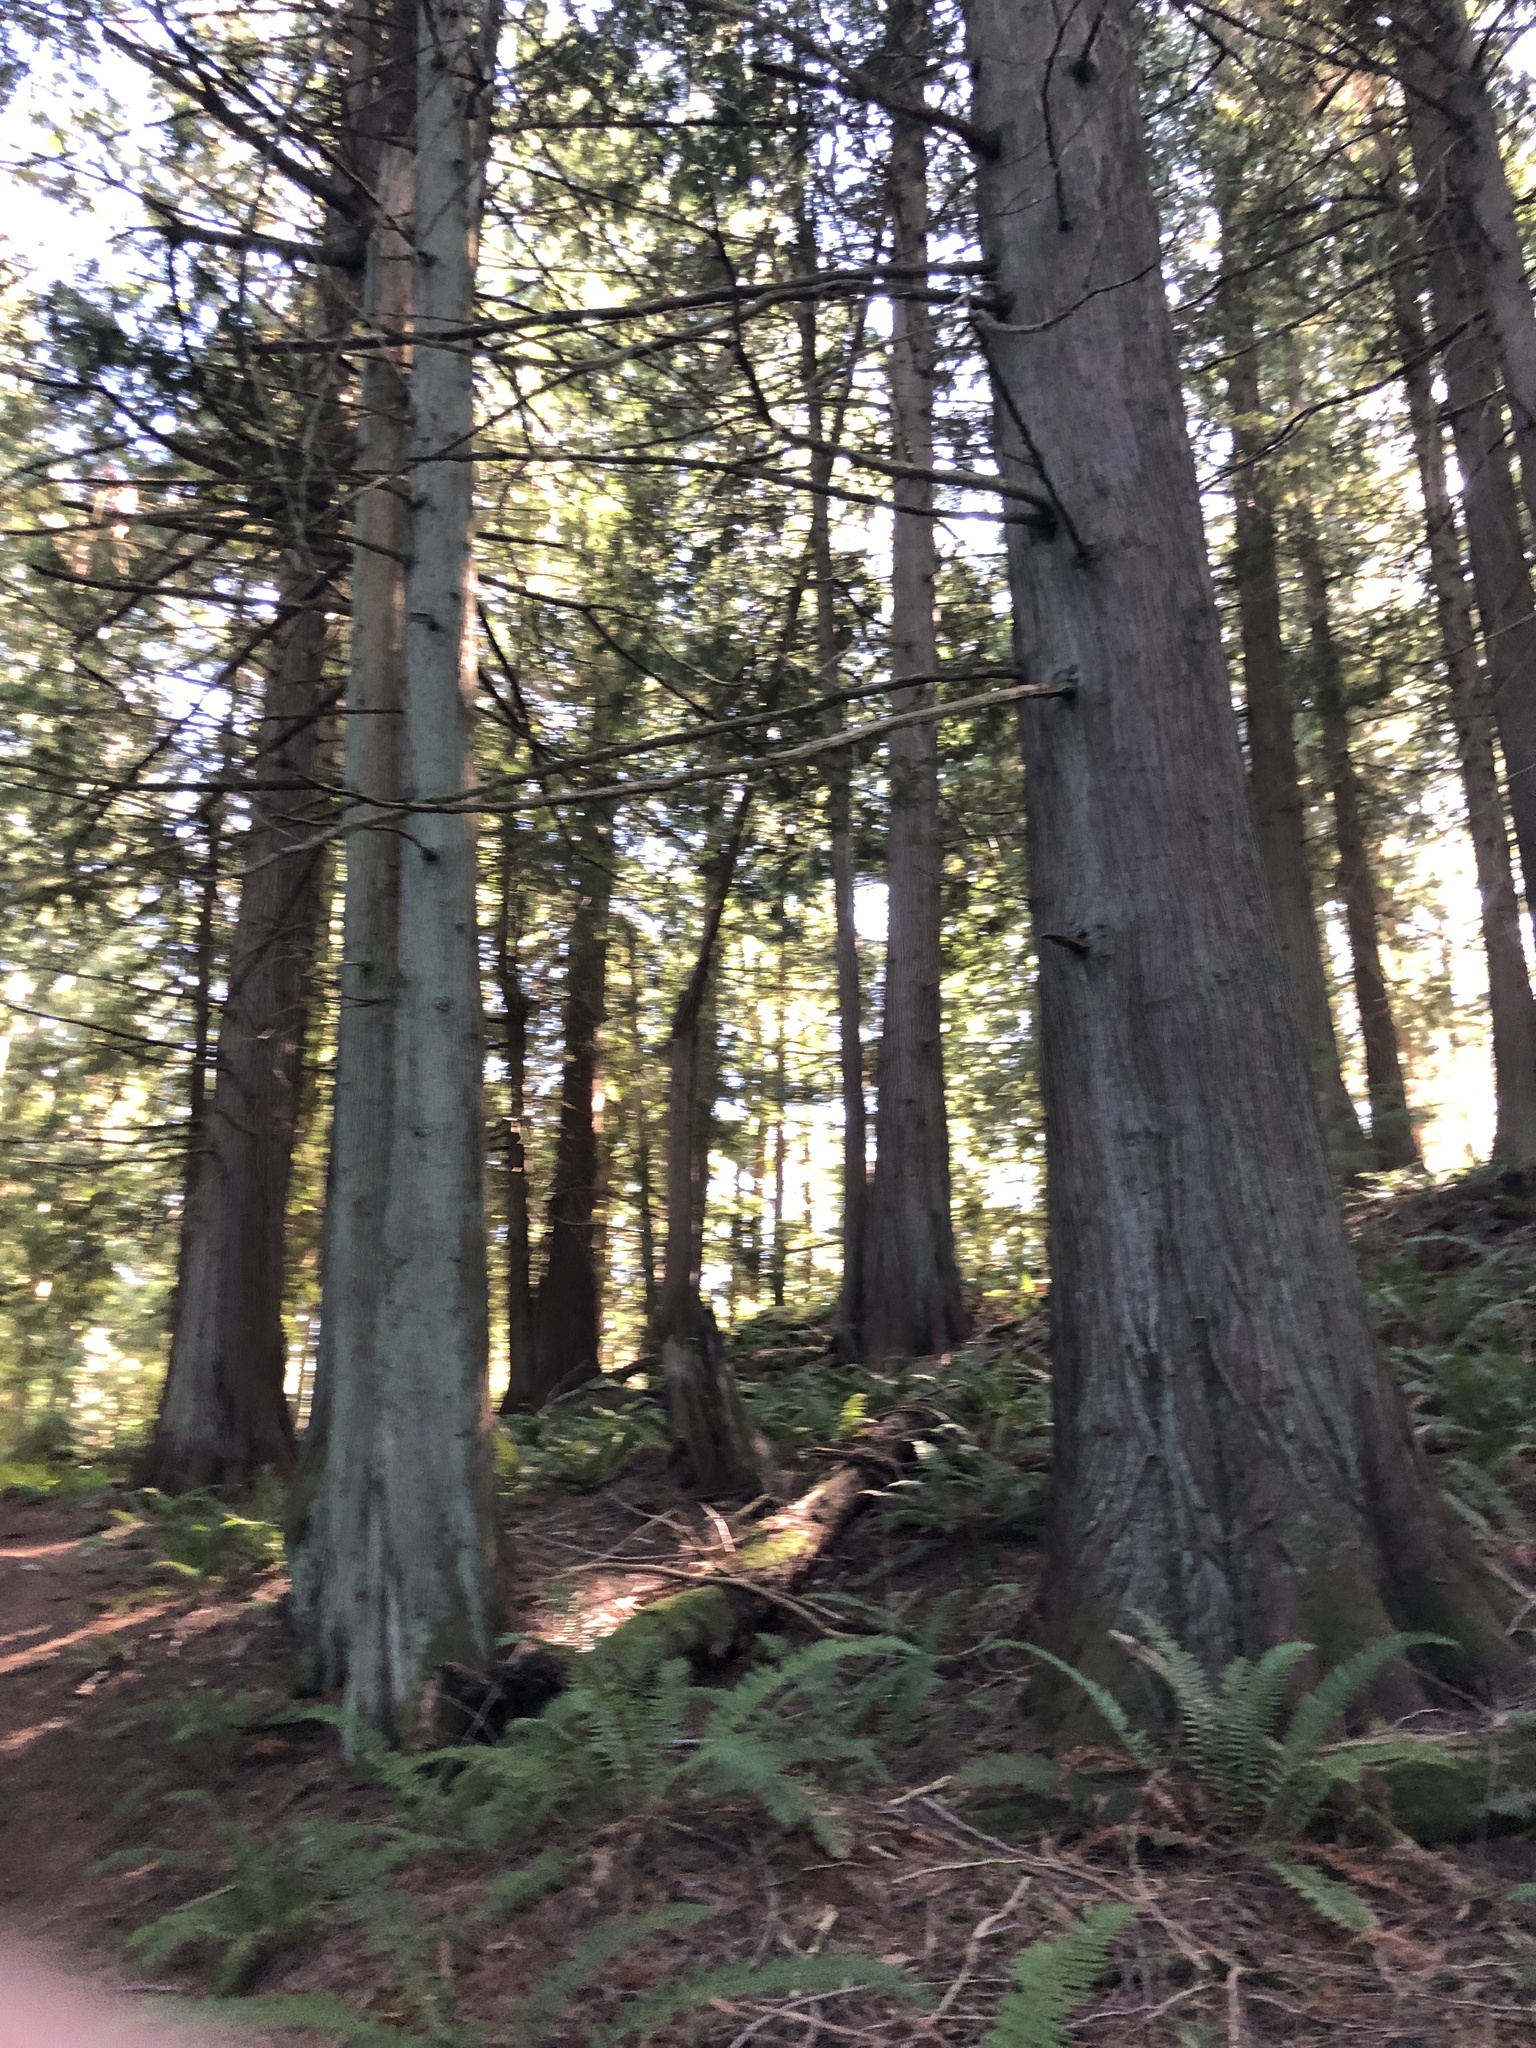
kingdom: Plantae
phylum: Tracheophyta
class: Pinopsida
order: Pinales
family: Cupressaceae
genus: Thuja
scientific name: Thuja plicata
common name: Western red-cedar
